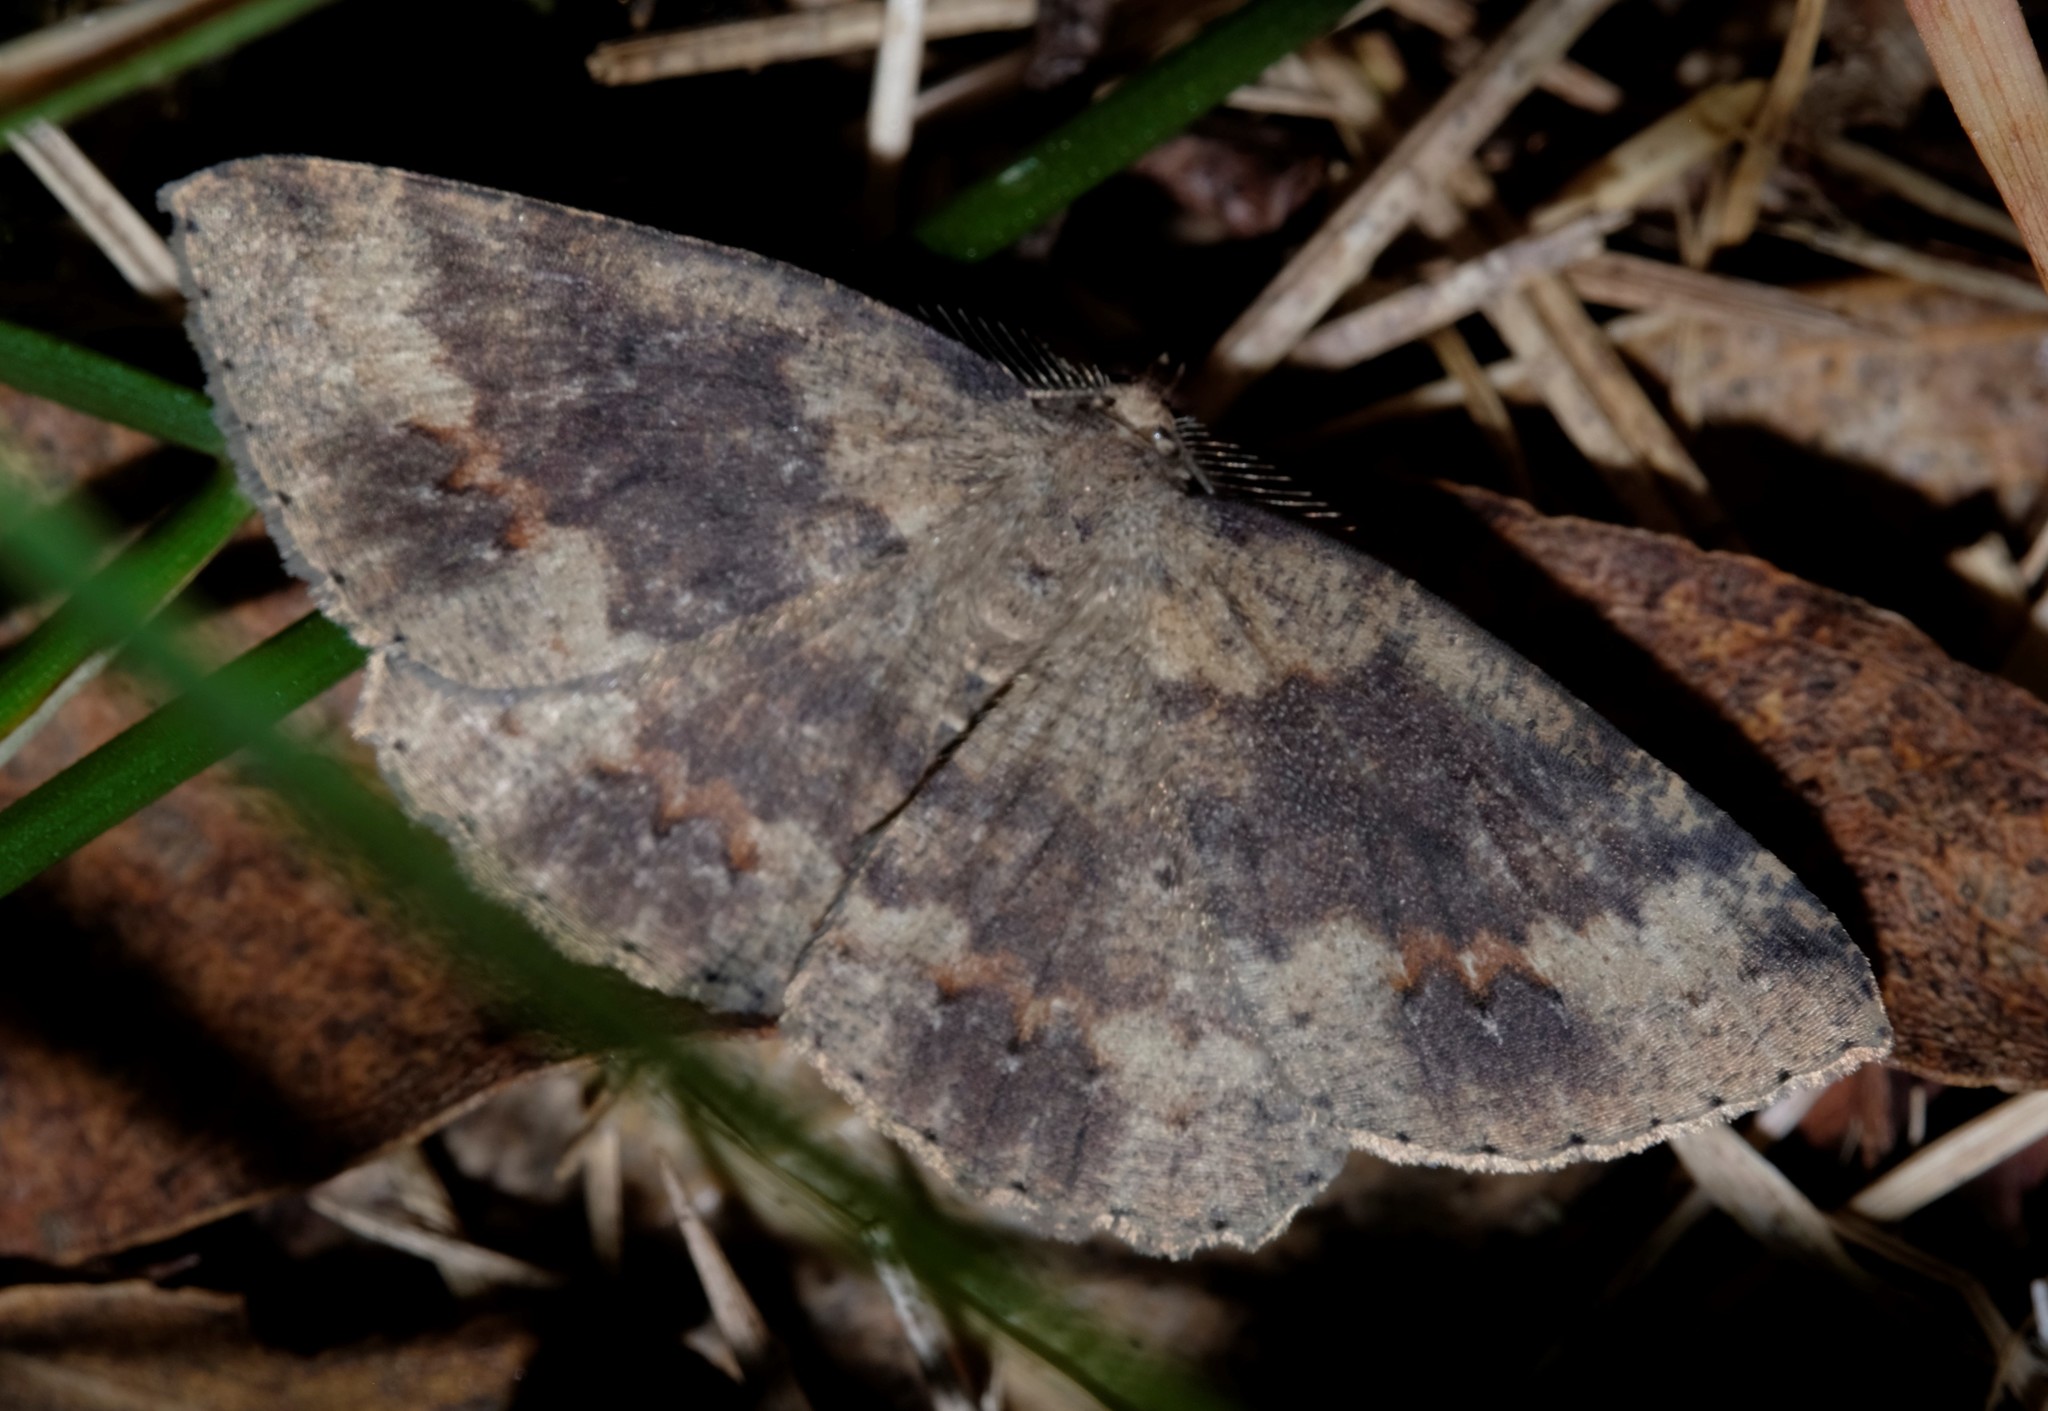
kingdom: Animalia
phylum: Arthropoda
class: Insecta
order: Lepidoptera
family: Geometridae
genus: Casbia
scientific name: Casbia melanops
